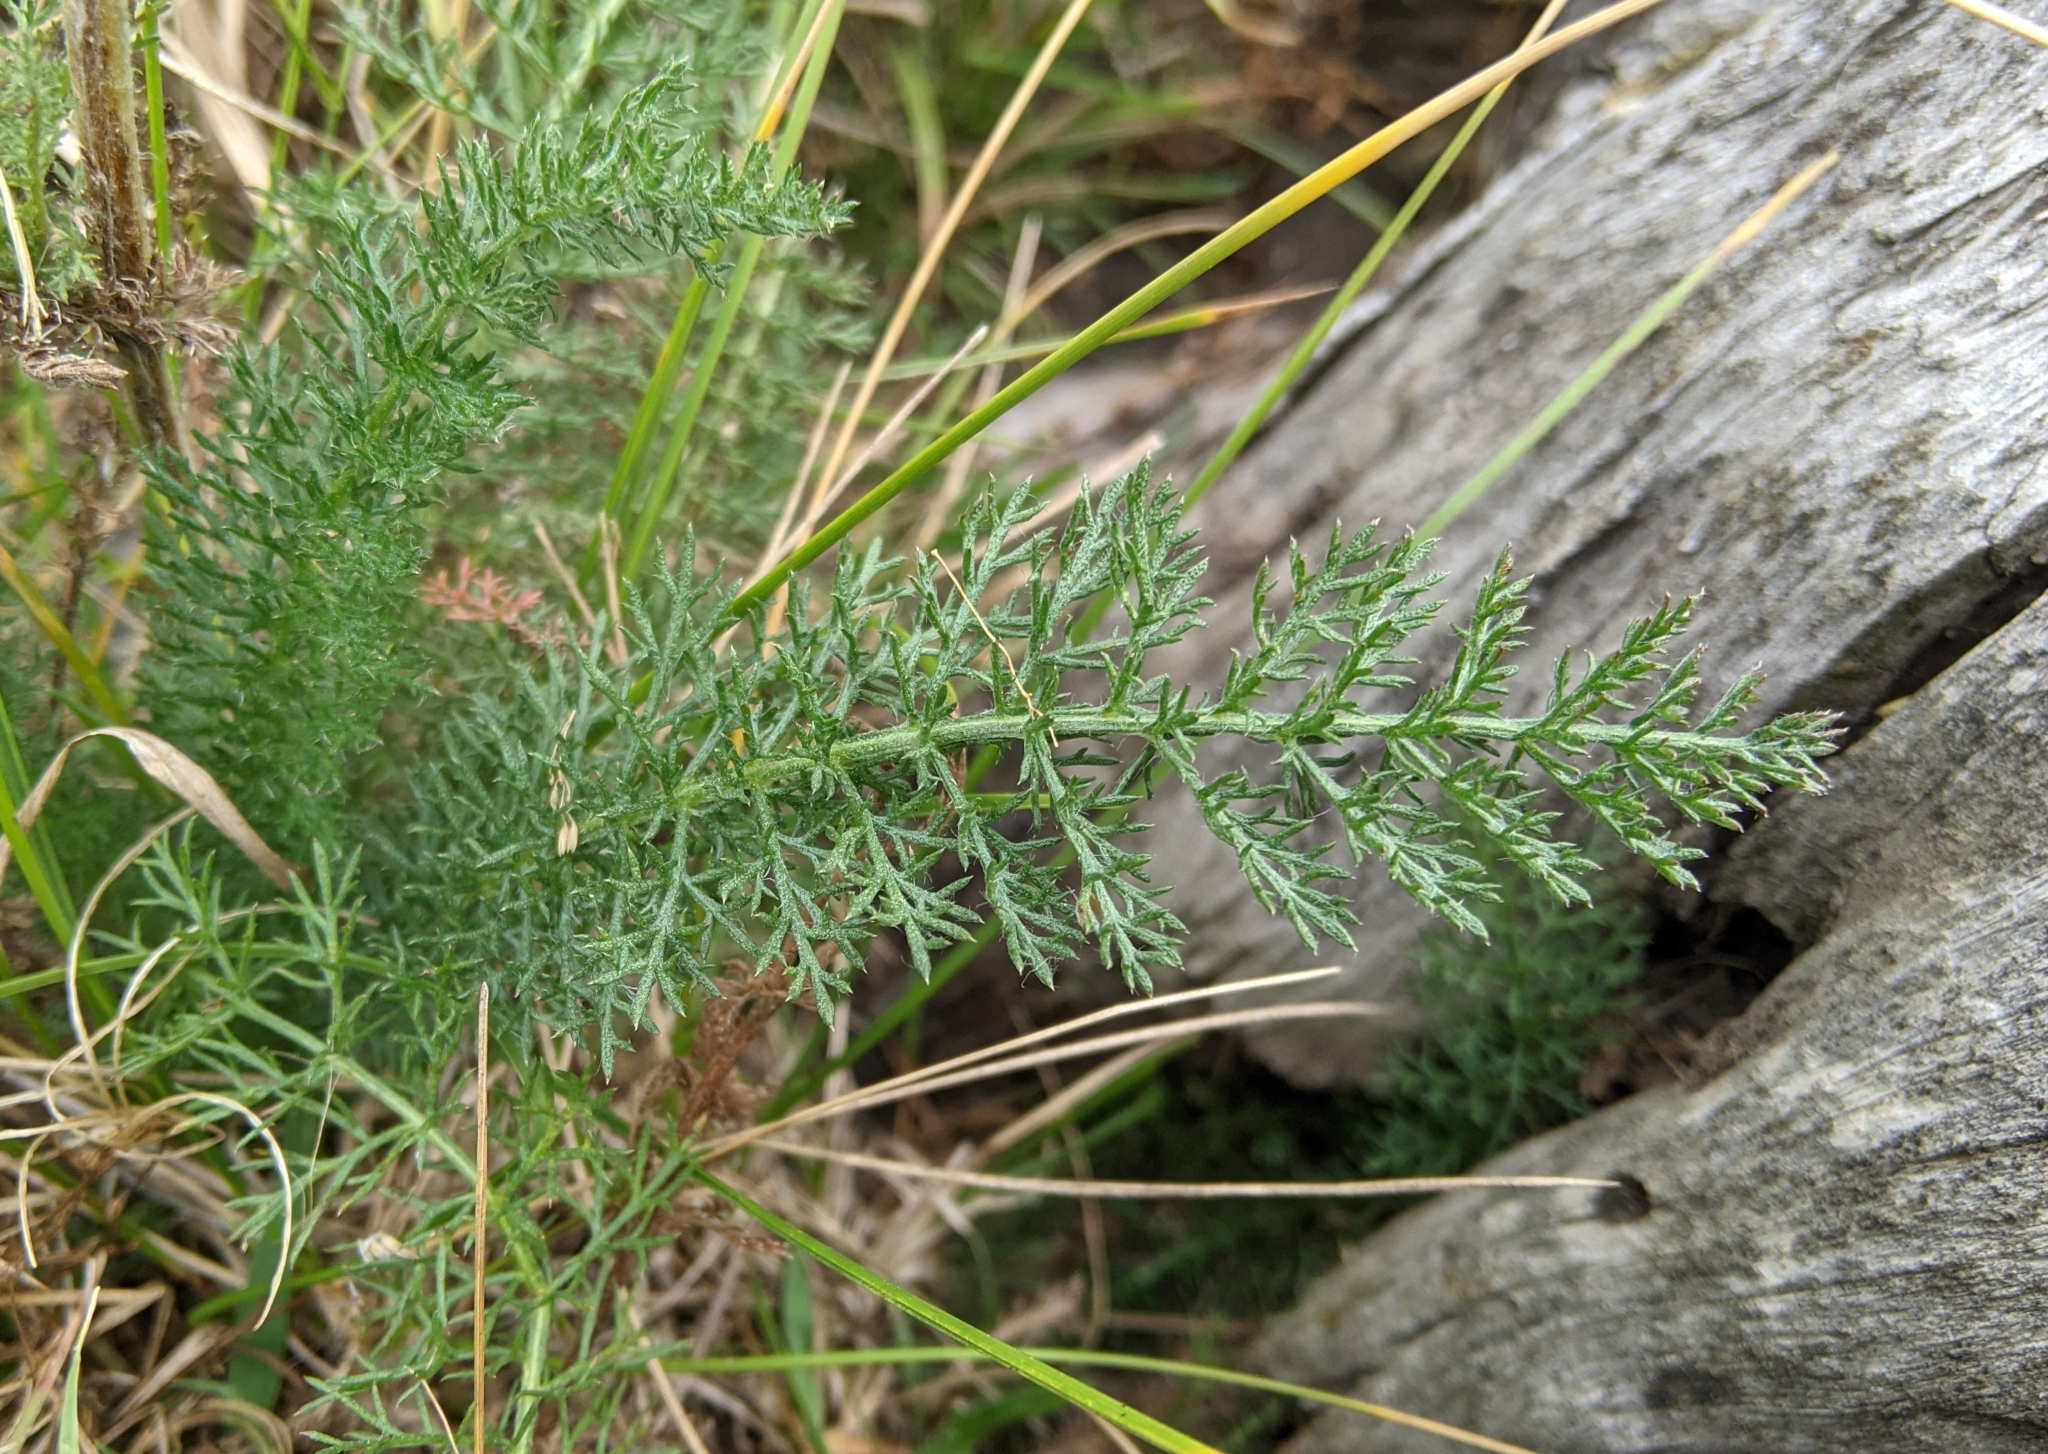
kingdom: Plantae
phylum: Tracheophyta
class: Magnoliopsida
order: Asterales
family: Asteraceae
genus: Achillea
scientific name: Achillea millefolium
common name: Yarrow
